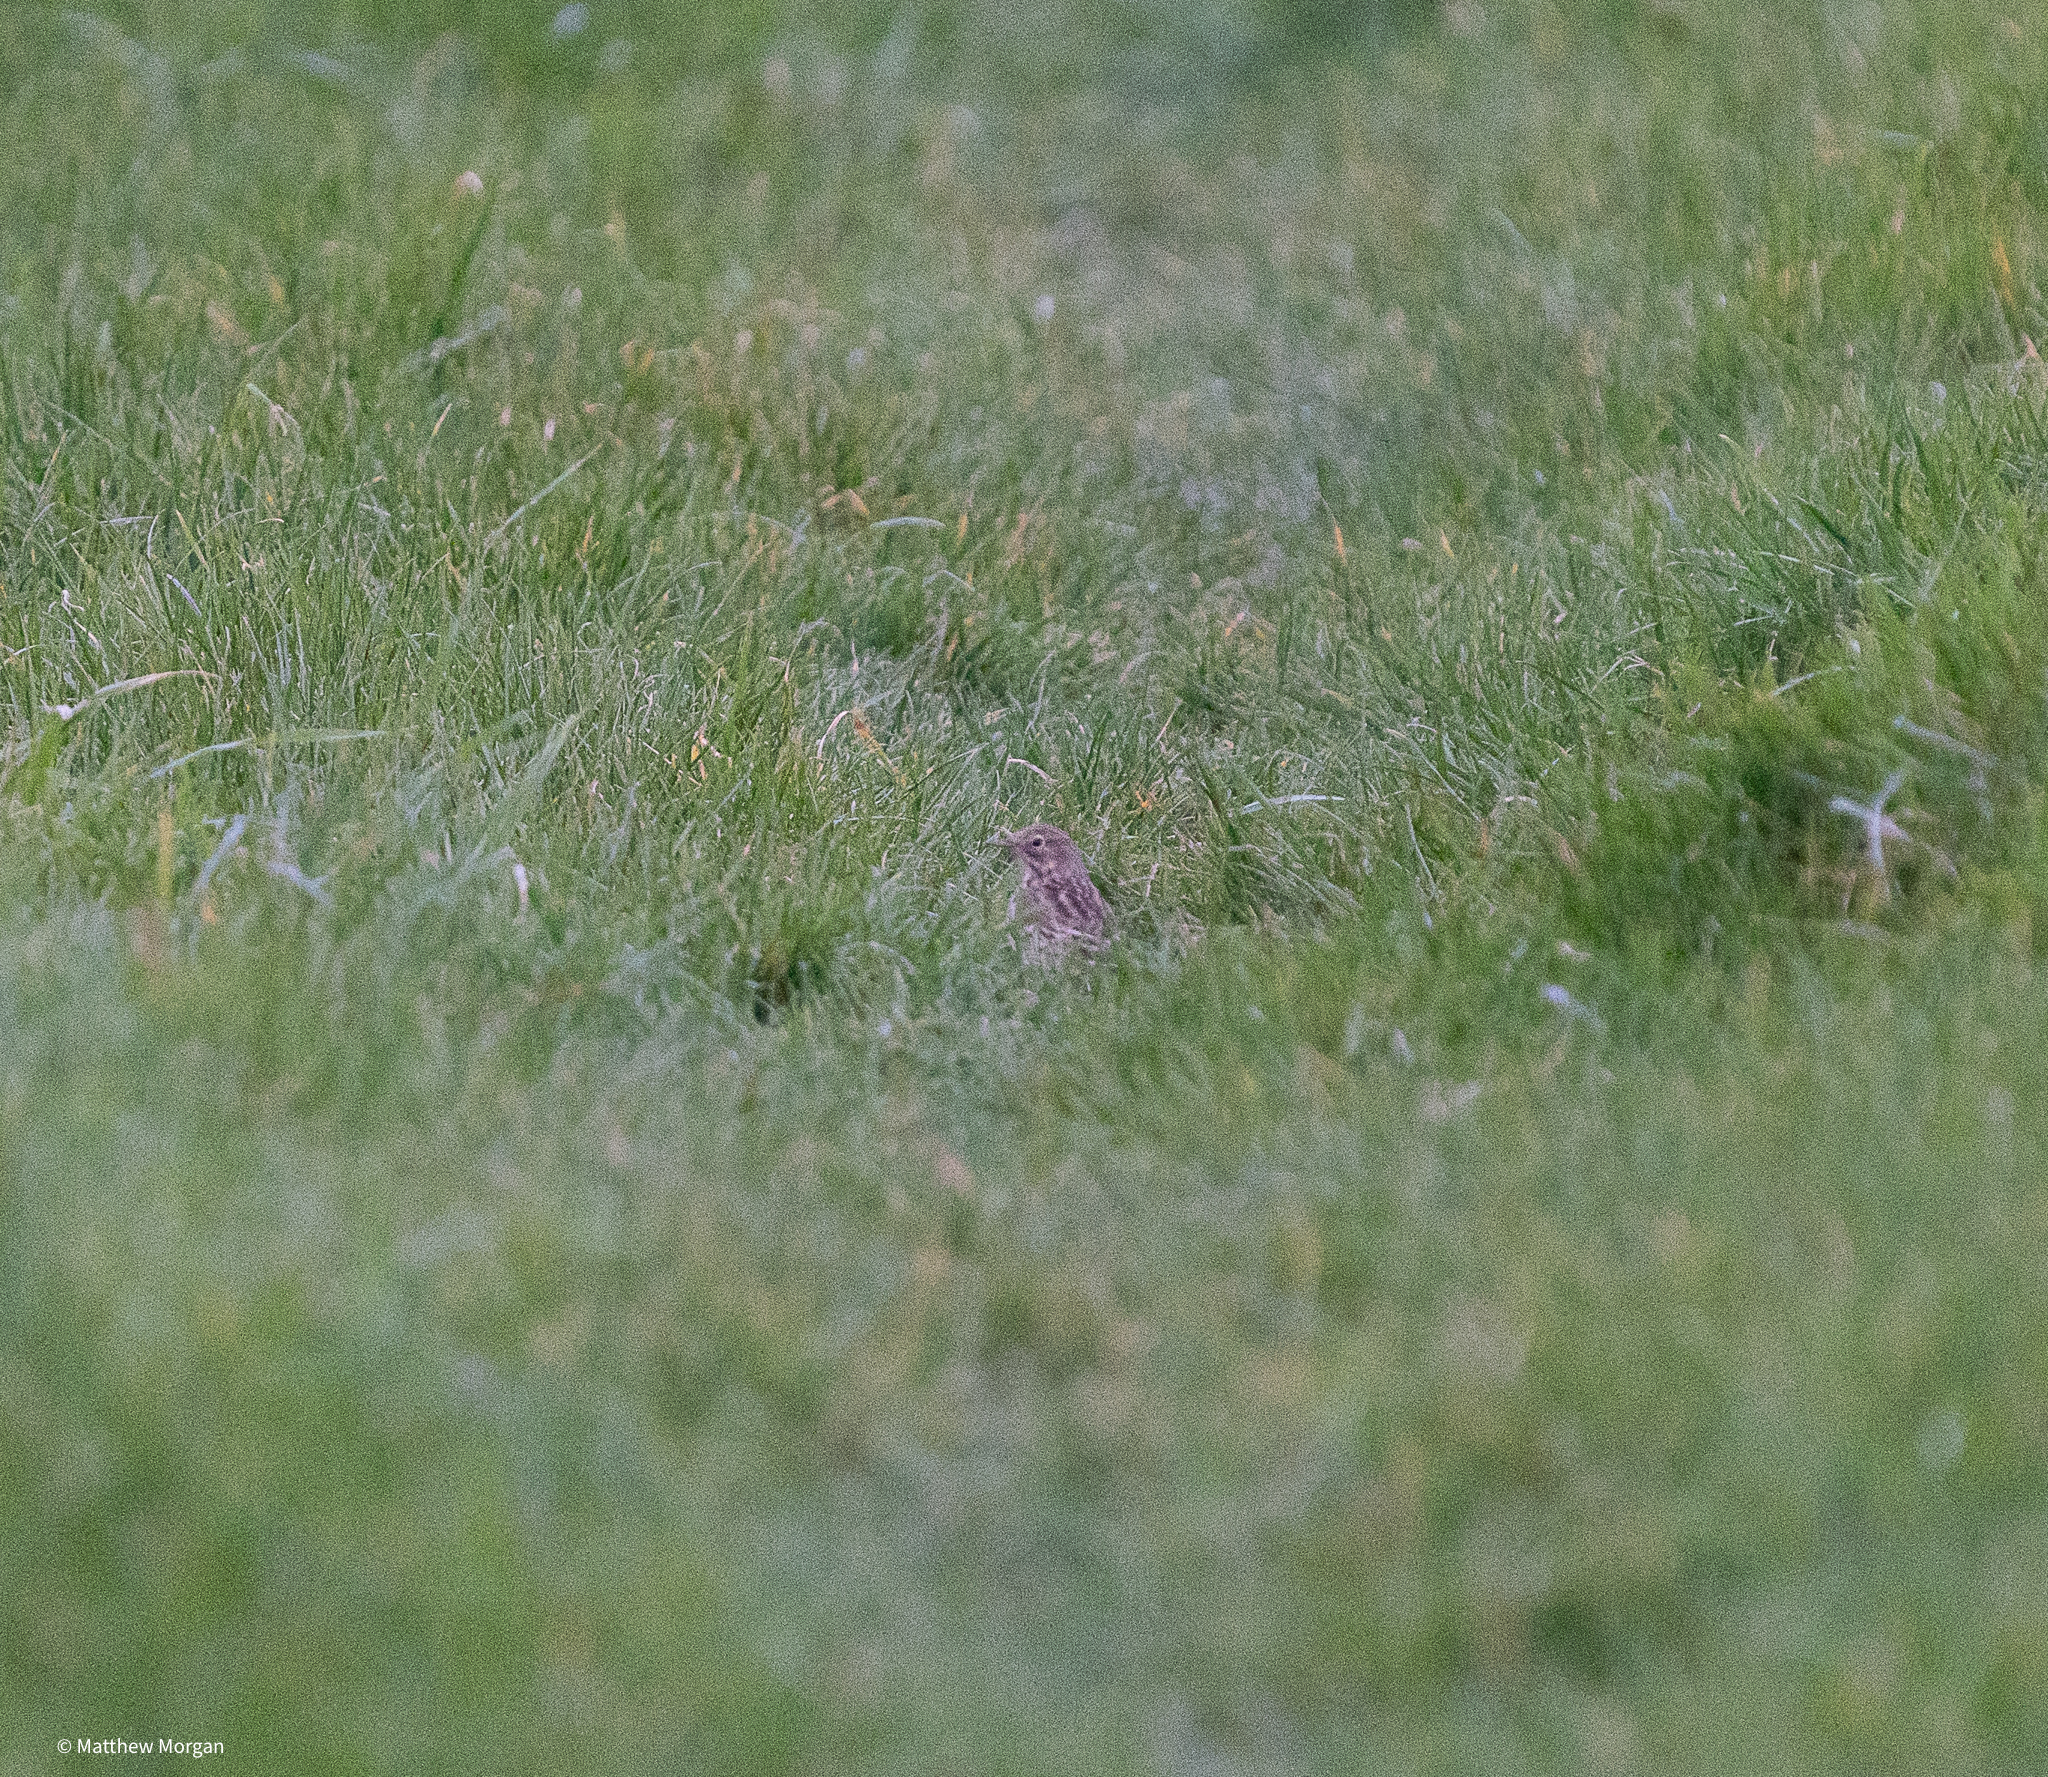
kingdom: Animalia
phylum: Chordata
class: Aves
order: Passeriformes
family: Motacillidae
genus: Anthus
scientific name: Anthus pratensis
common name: Meadow pipit
